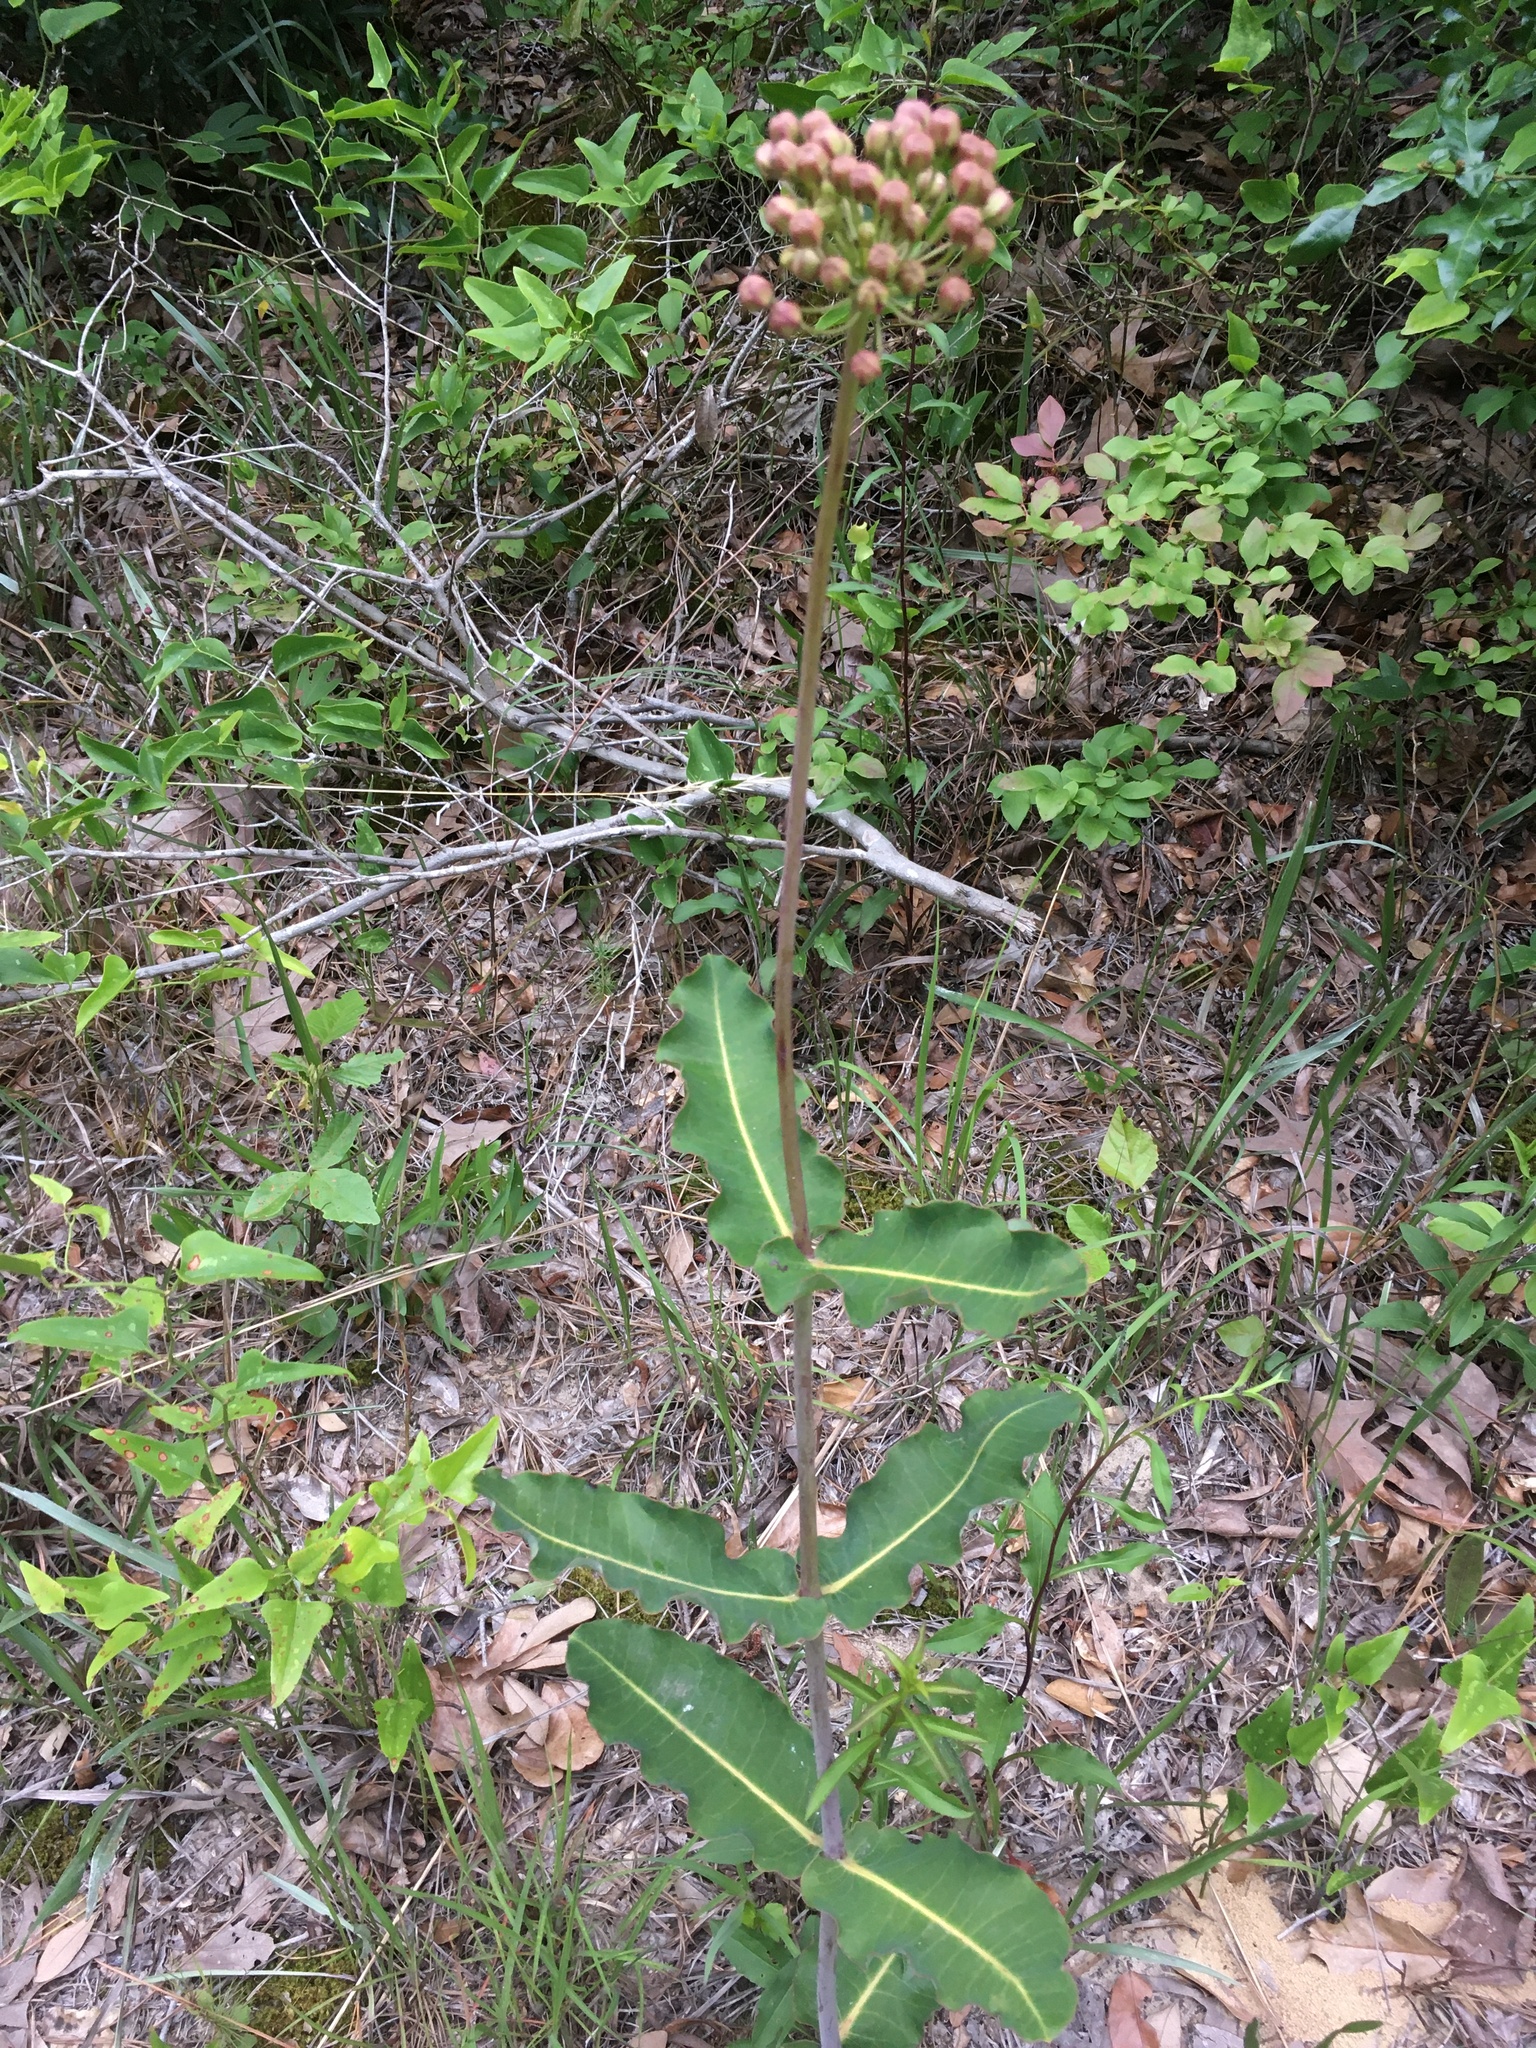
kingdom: Plantae
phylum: Tracheophyta
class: Magnoliopsida
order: Gentianales
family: Apocynaceae
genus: Asclepias
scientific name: Asclepias amplexicaulis
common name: Blunt-leaf milkweed
